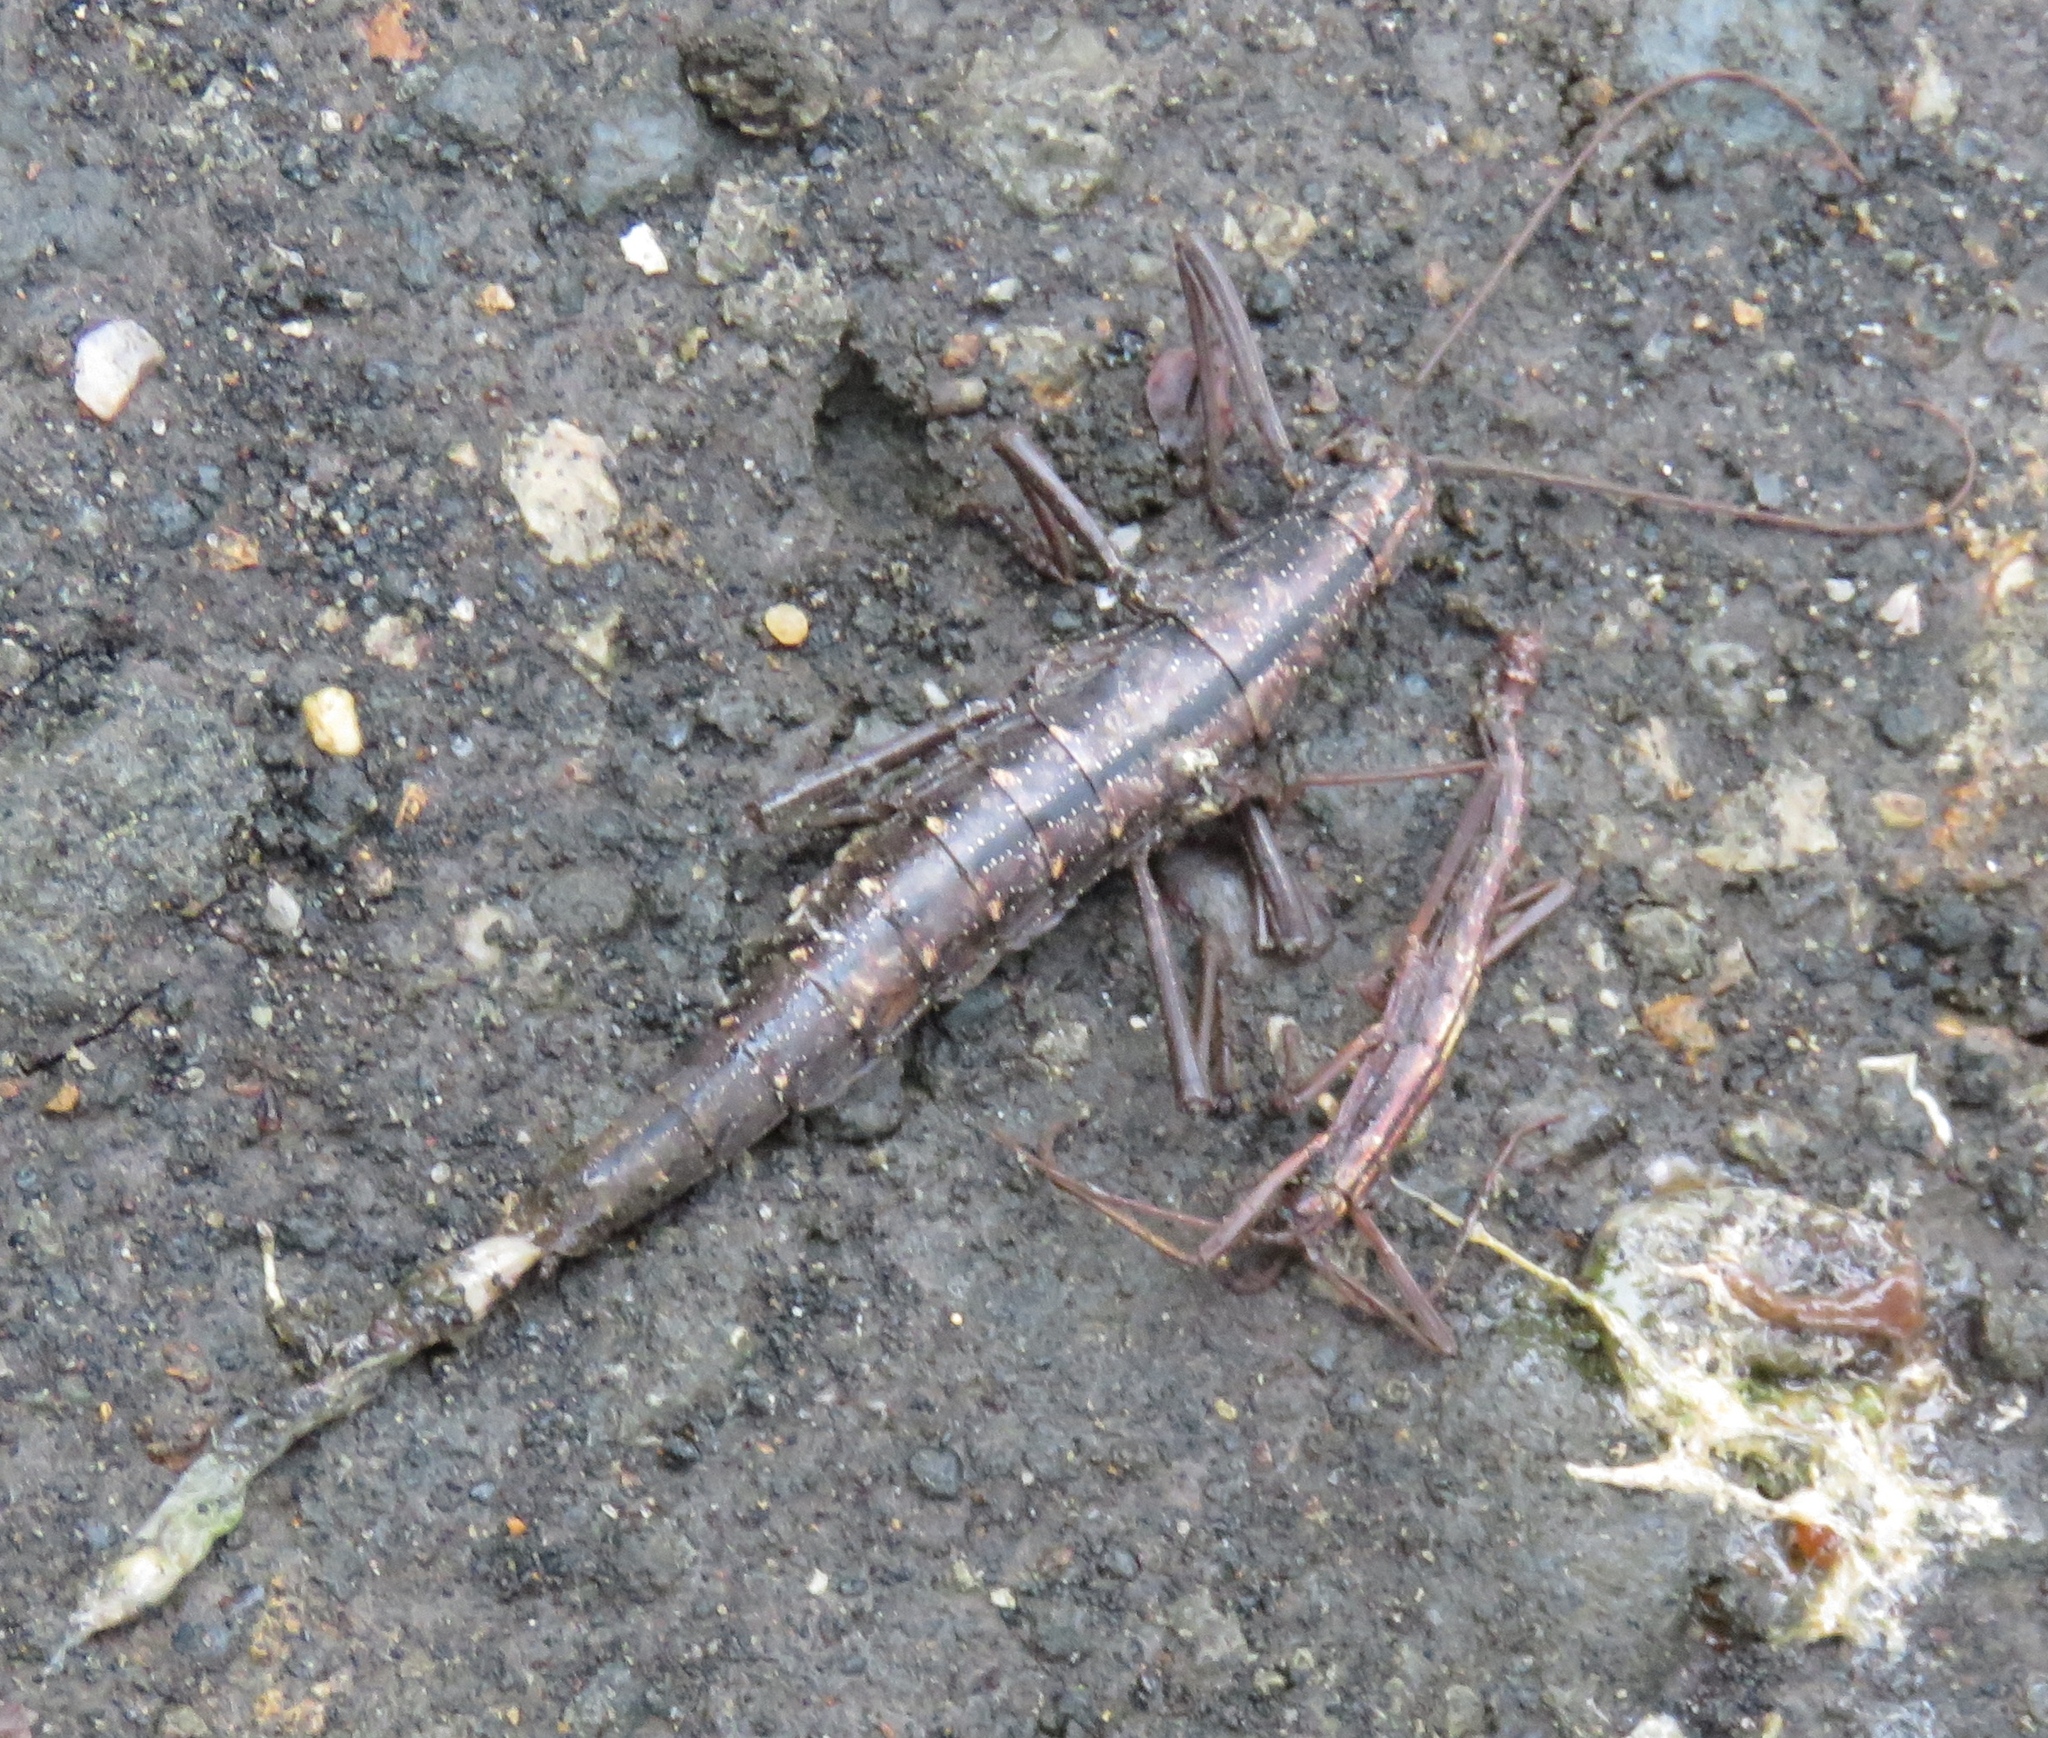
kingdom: Animalia
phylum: Arthropoda
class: Insecta
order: Phasmida
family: Pseudophasmatidae
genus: Anisomorpha
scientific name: Anisomorpha buprestoides
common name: Florida stick insect
